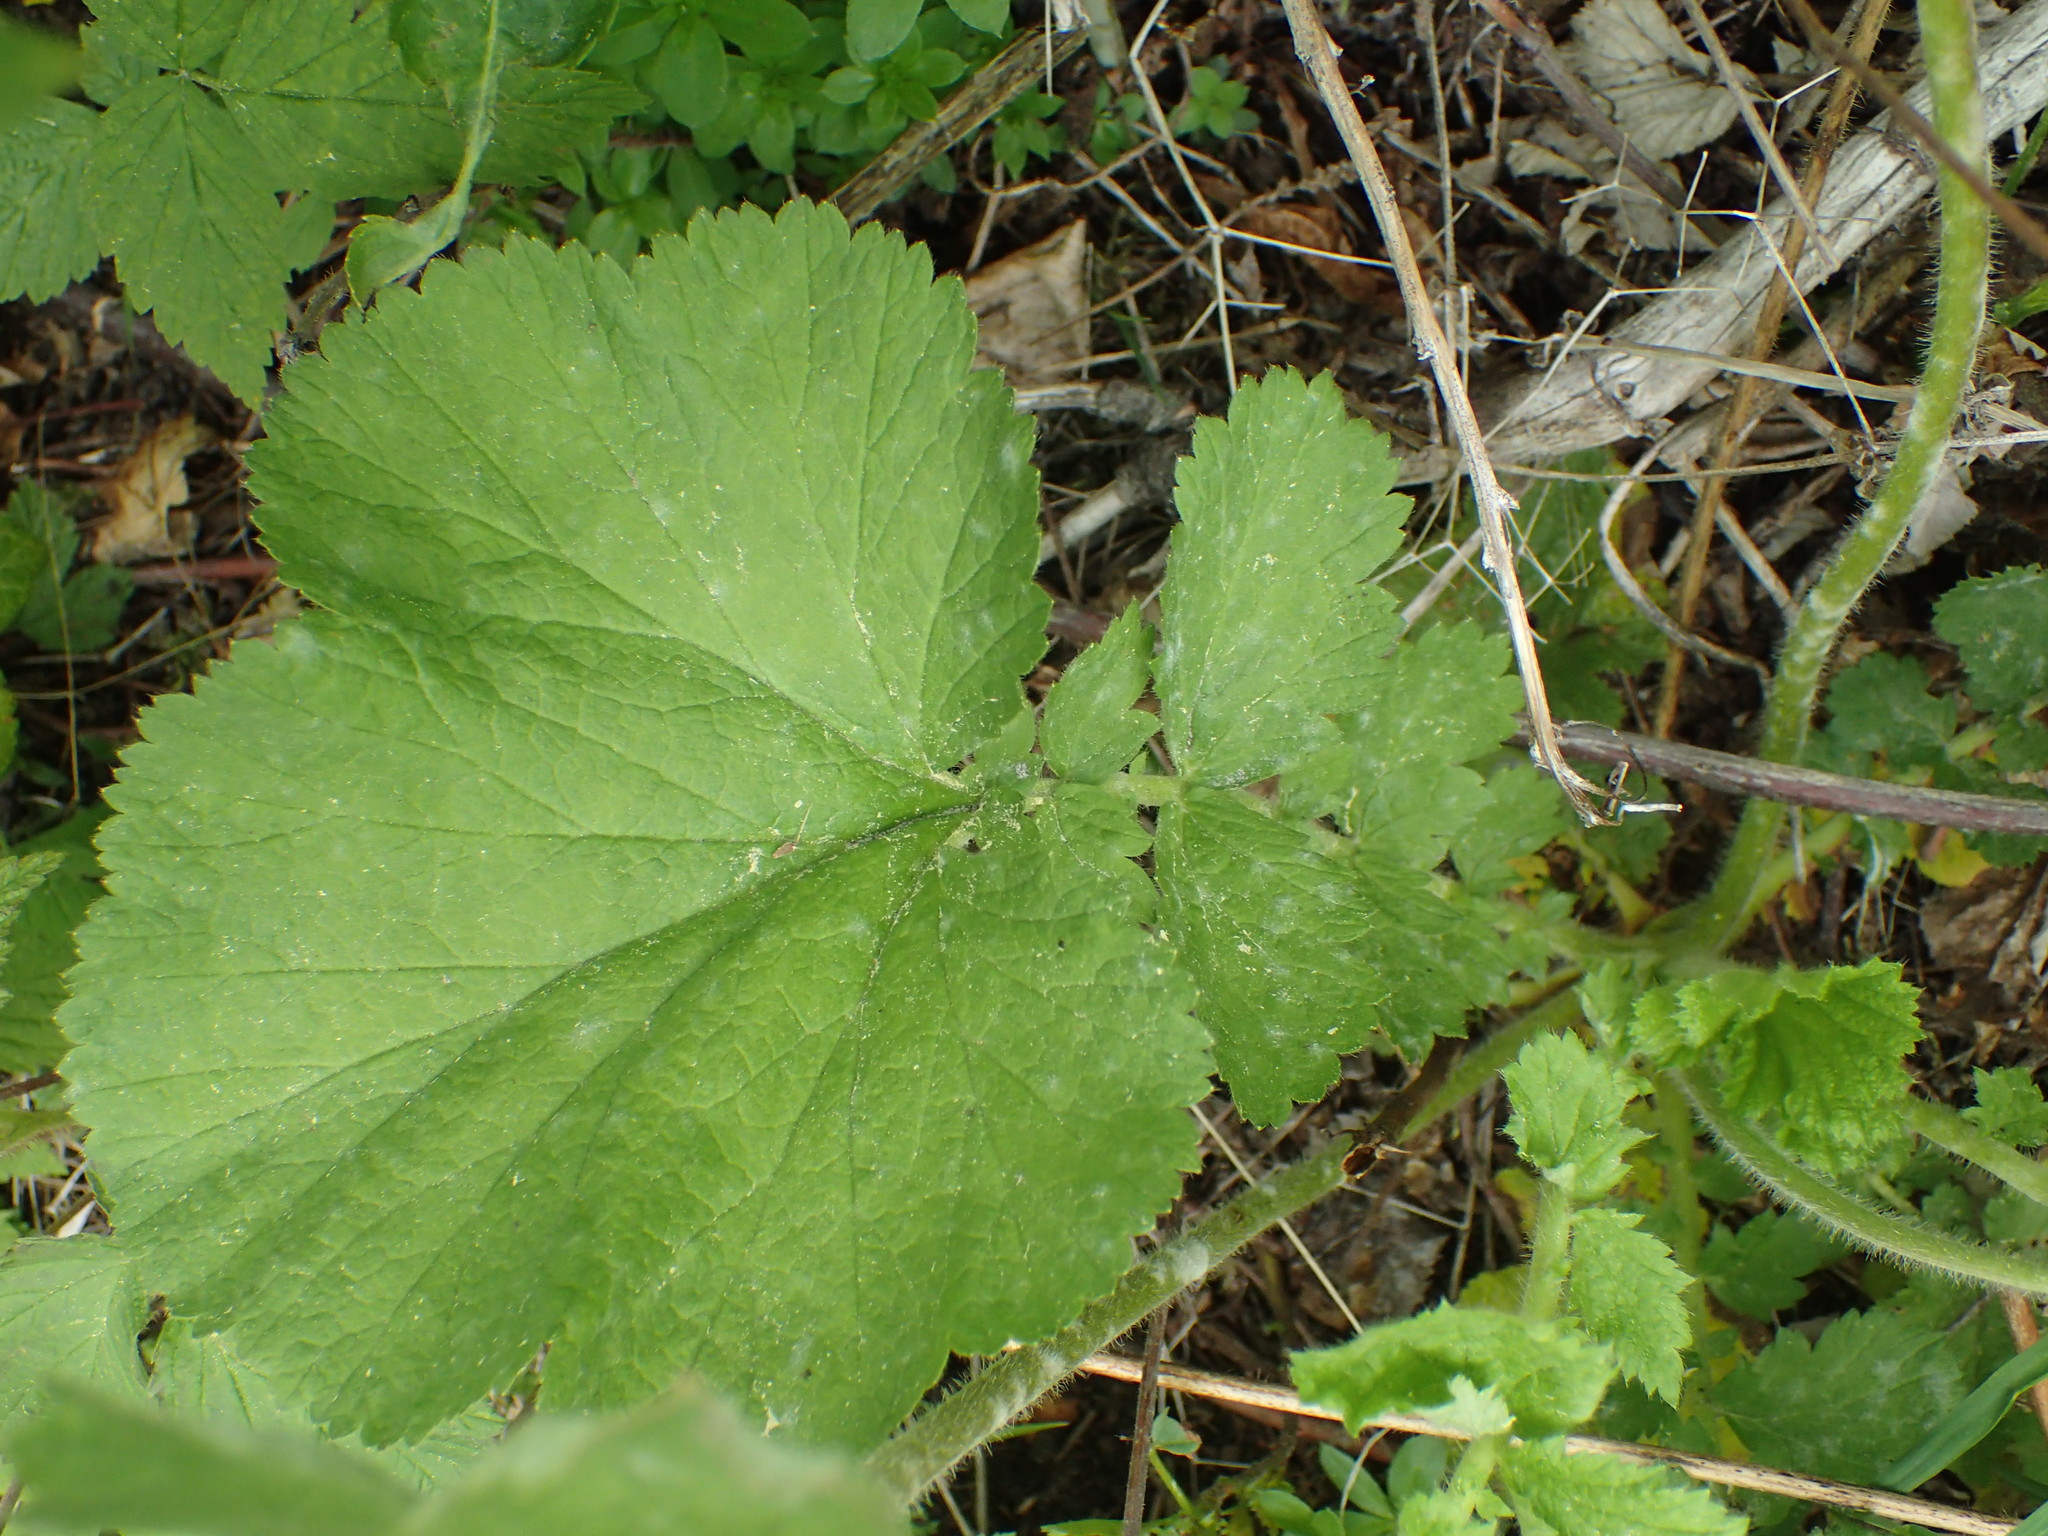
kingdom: Plantae
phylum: Tracheophyta
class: Magnoliopsida
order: Rosales
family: Rosaceae
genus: Geum
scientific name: Geum macrophyllum
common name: Large-leaved avens
